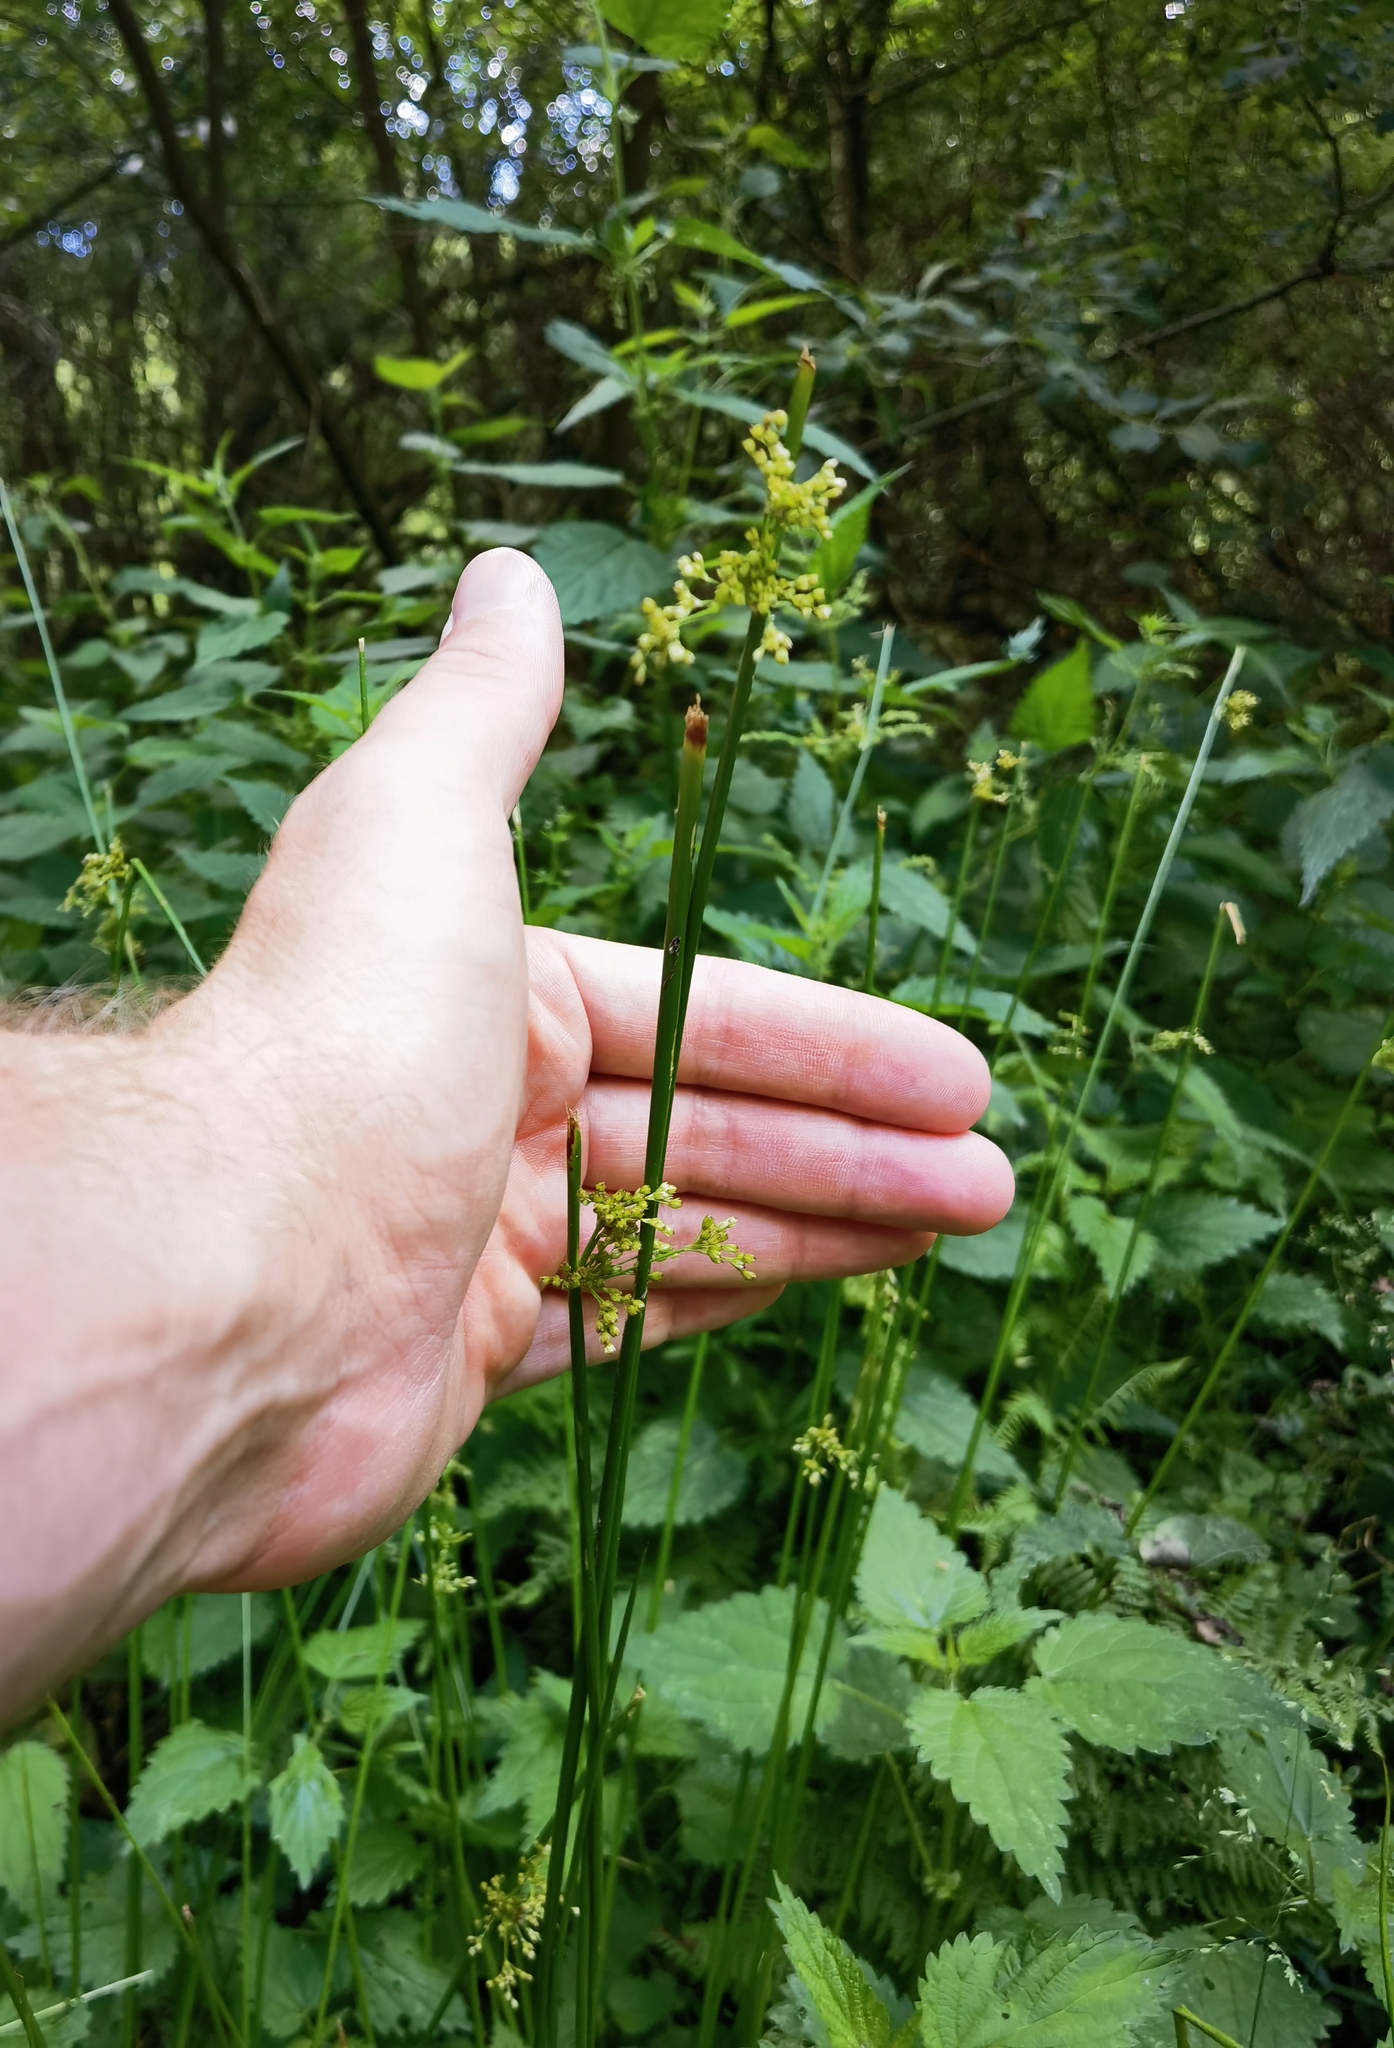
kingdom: Plantae
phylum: Tracheophyta
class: Liliopsida
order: Poales
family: Juncaceae
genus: Juncus
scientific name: Juncus effusus
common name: Soft rush
